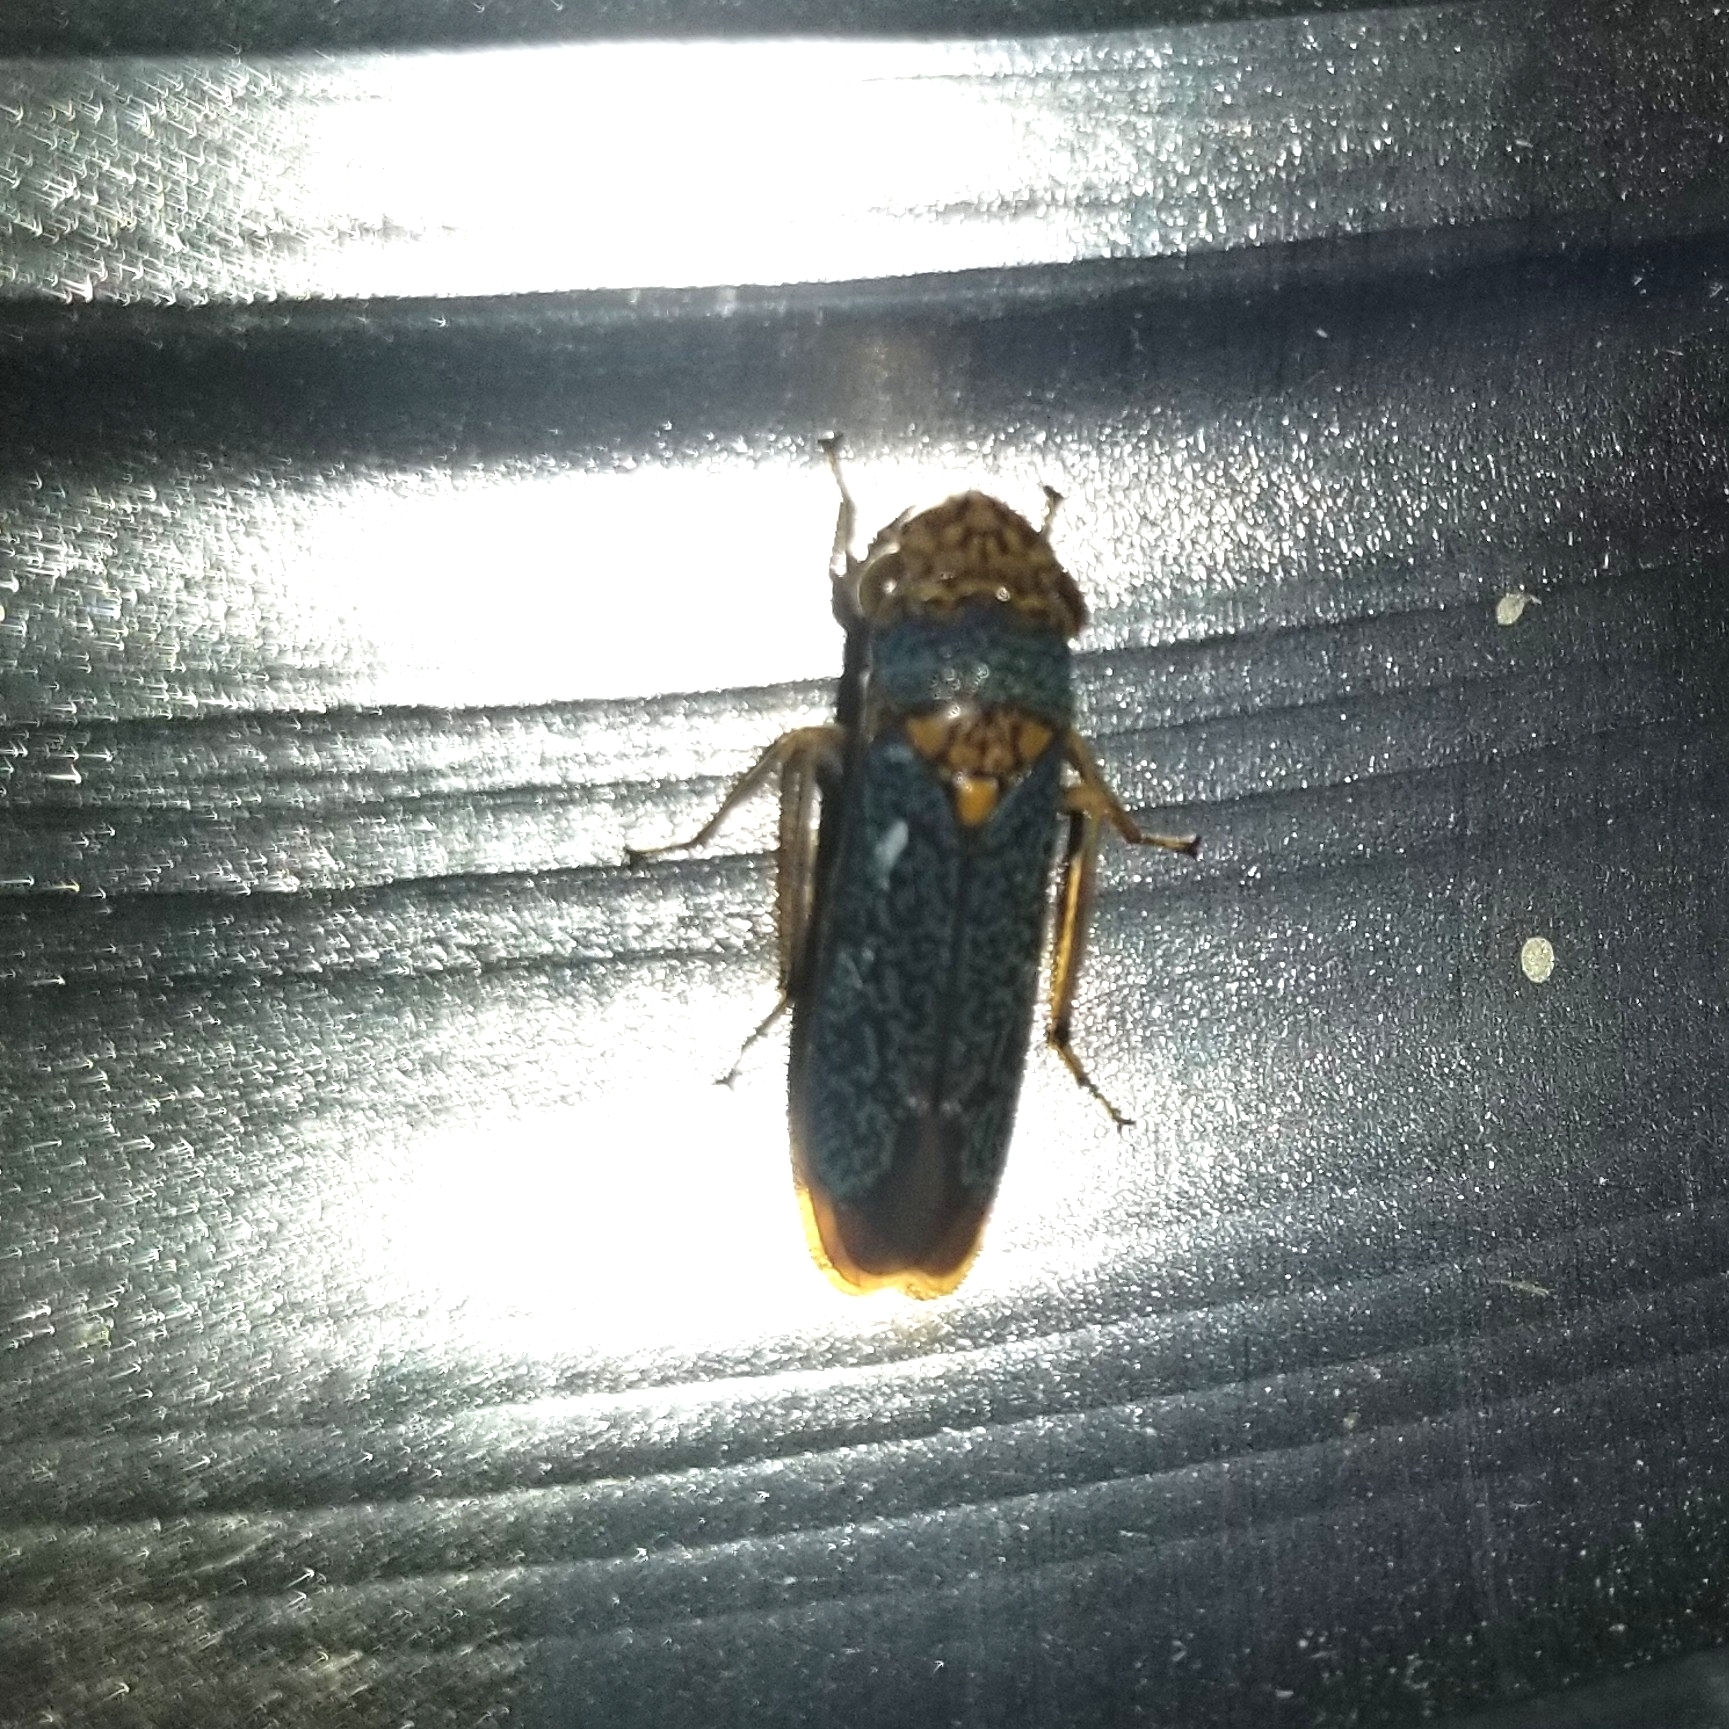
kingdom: Animalia
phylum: Arthropoda
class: Insecta
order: Hemiptera
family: Cicadellidae
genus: Oncometopia
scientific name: Oncometopia orbona
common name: Broad-headed sharpshooter
